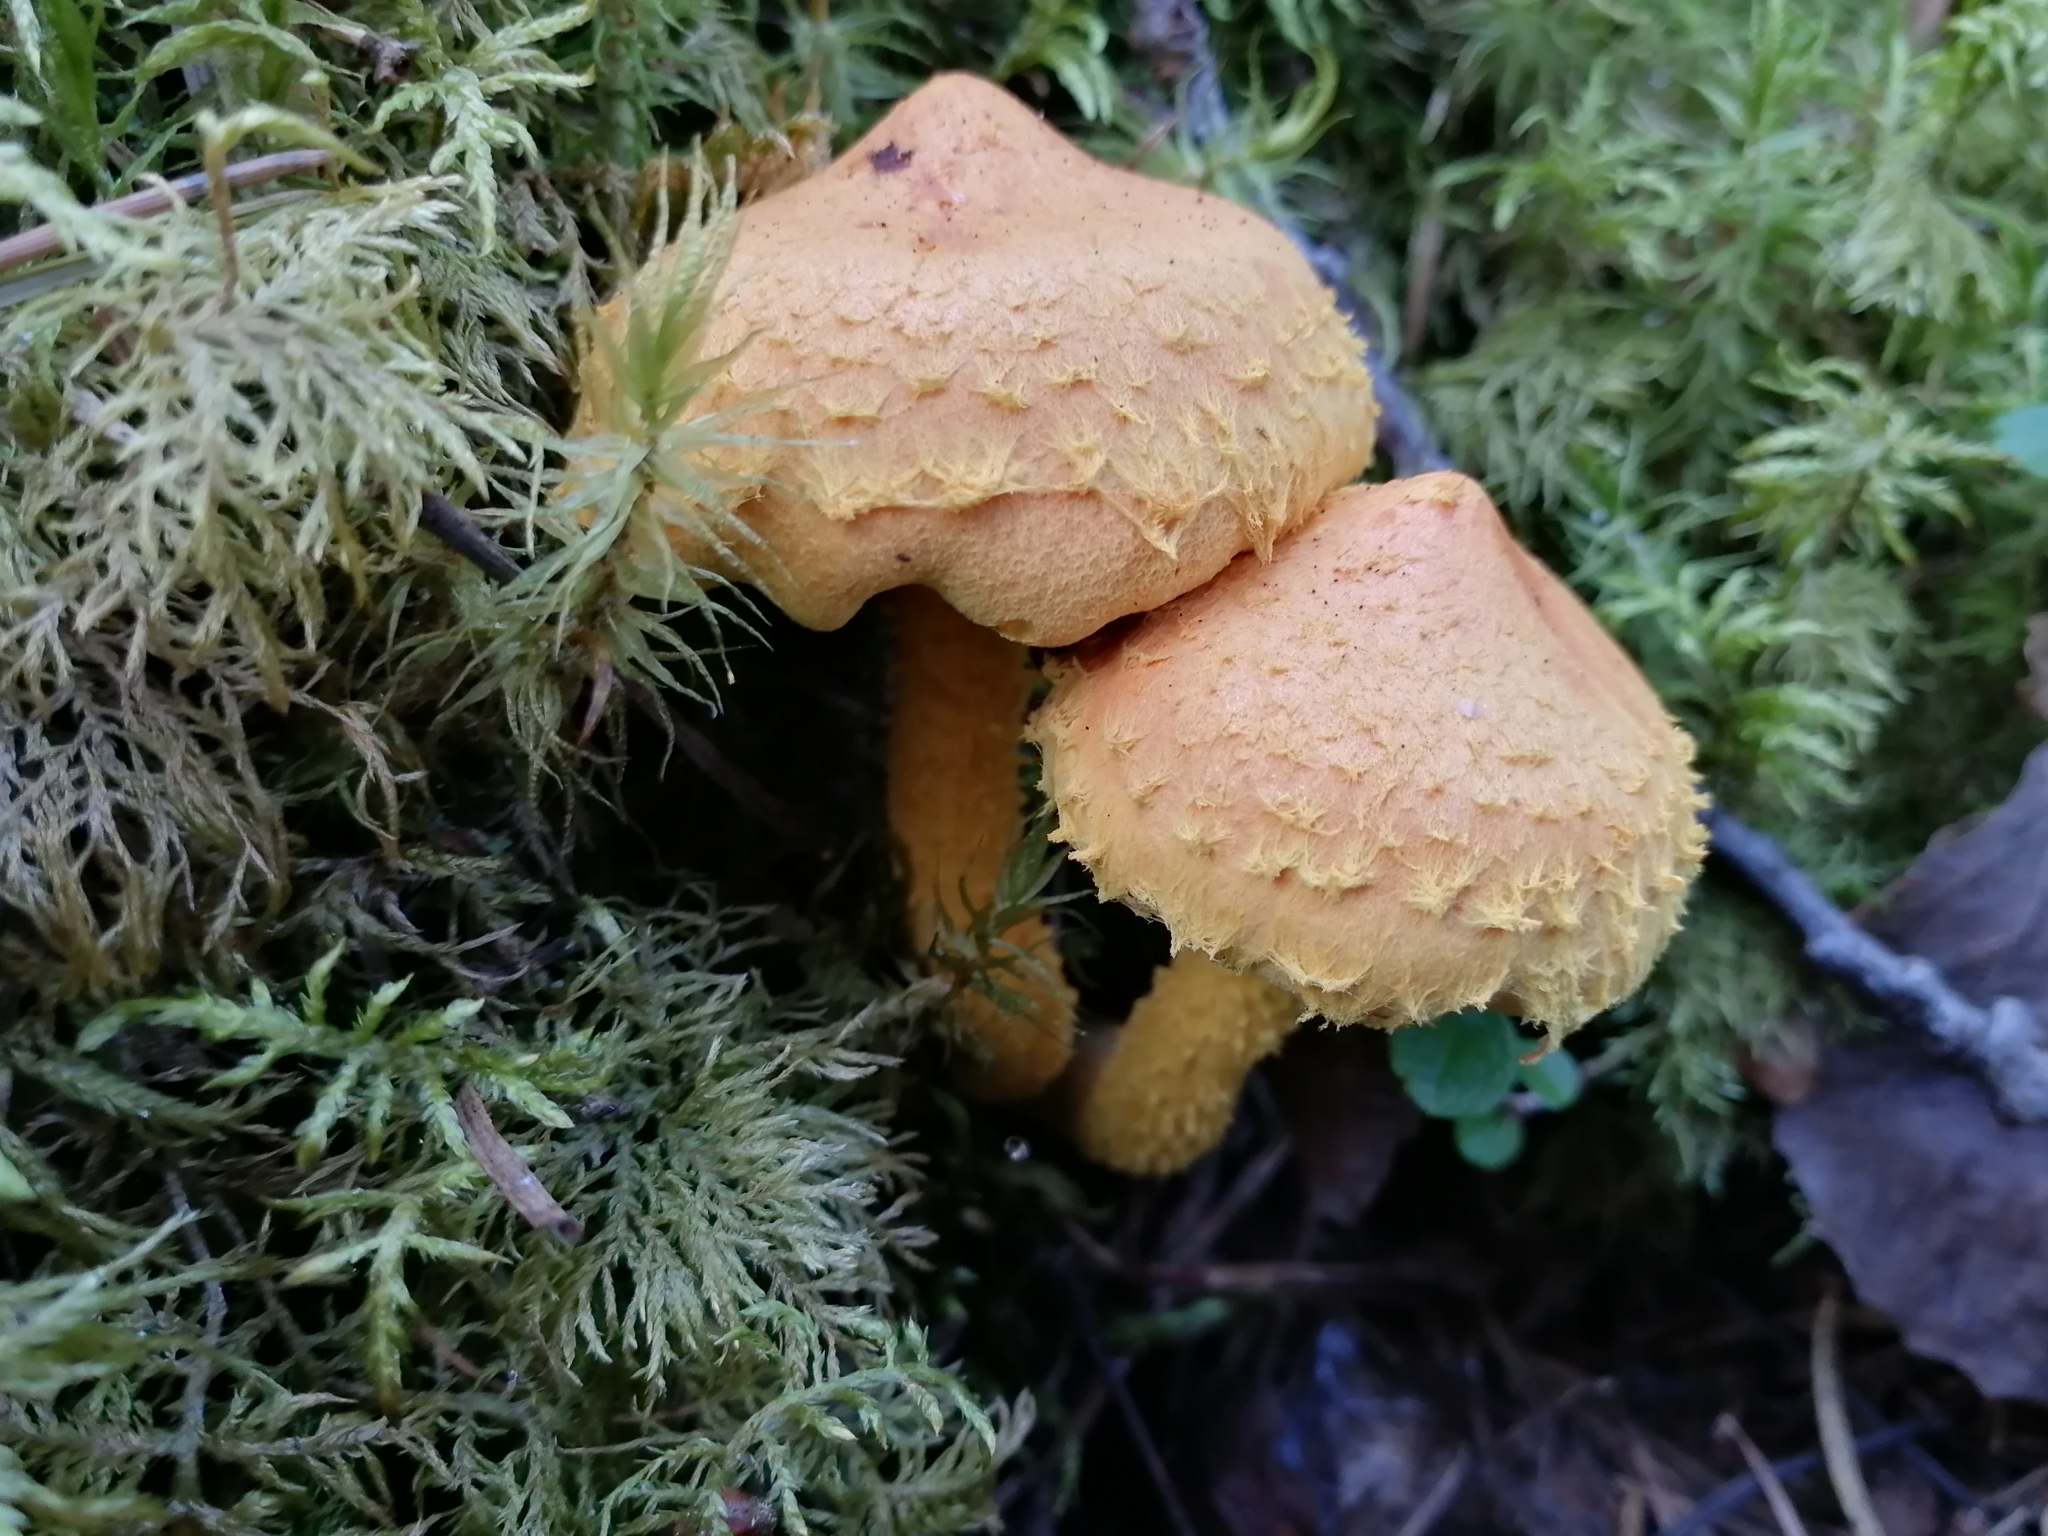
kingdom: Fungi
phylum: Basidiomycota
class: Agaricomycetes
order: Agaricales
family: Strophariaceae
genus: Pholiota
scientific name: Pholiota flammans
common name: Flaming scalycap
